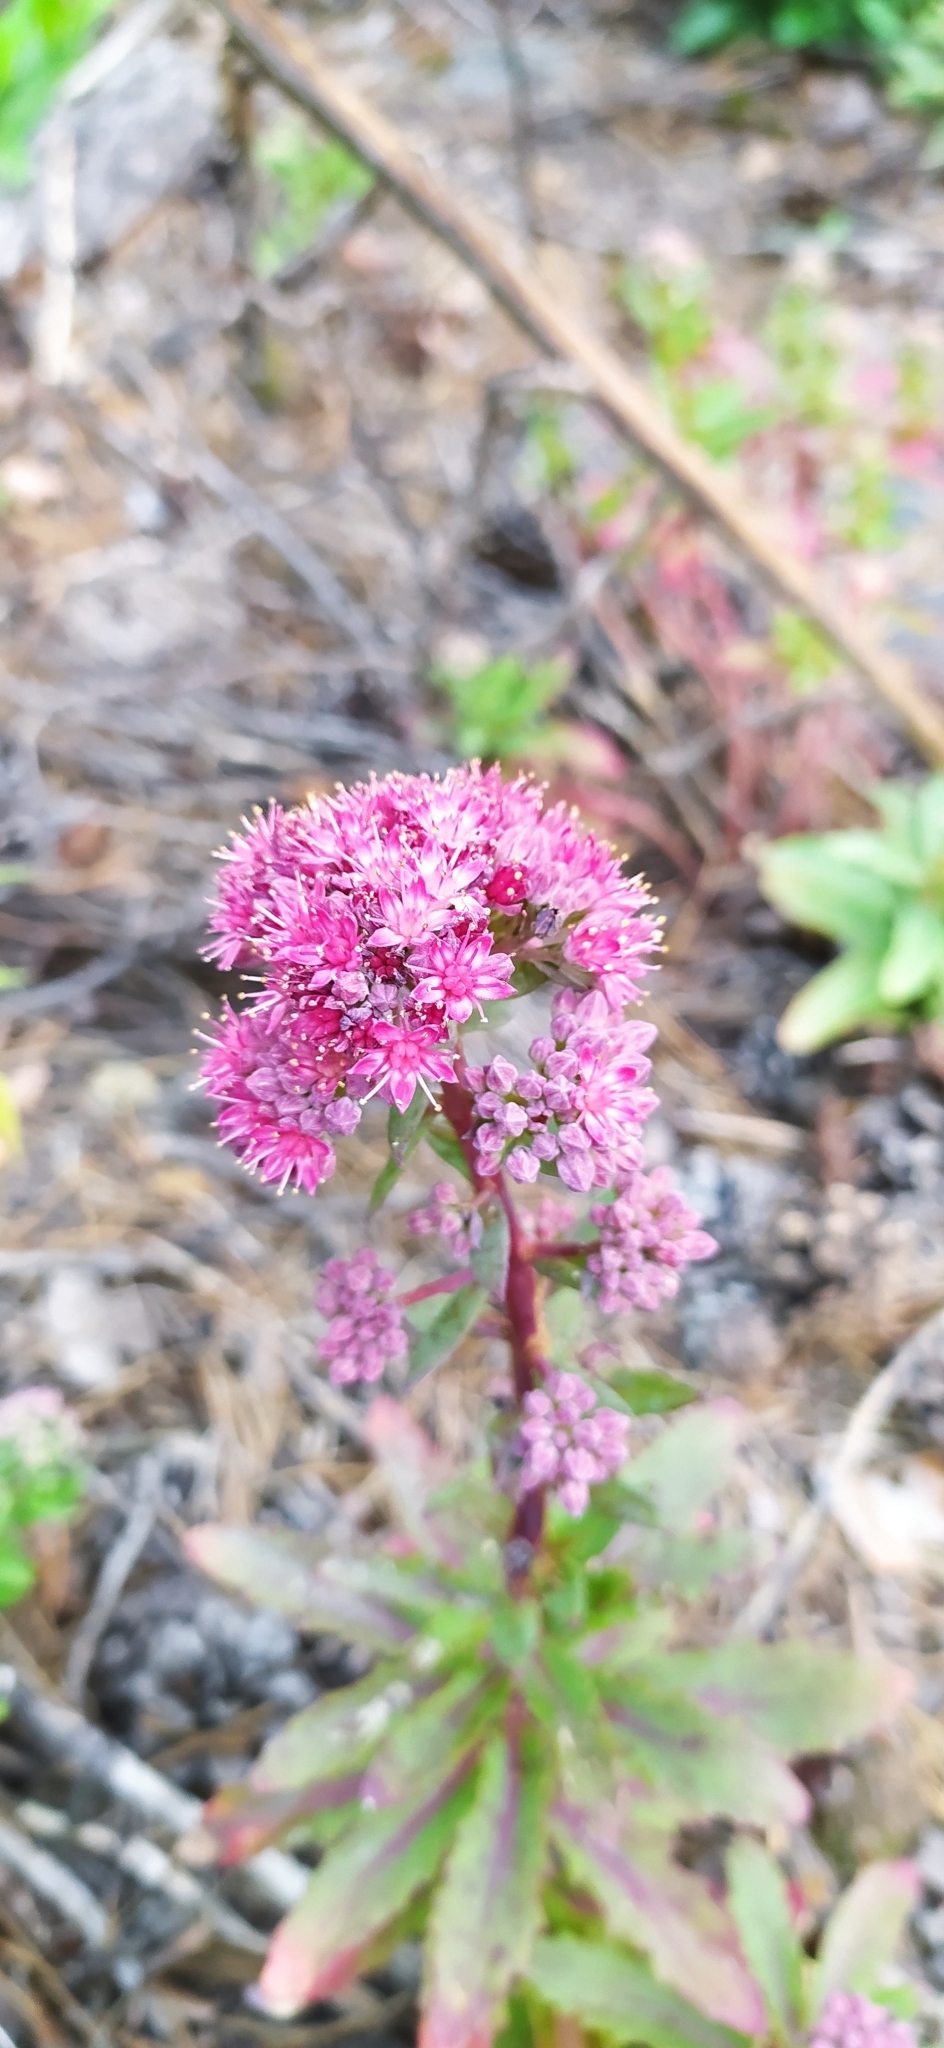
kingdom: Plantae
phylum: Tracheophyta
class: Magnoliopsida
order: Saxifragales
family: Crassulaceae
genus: Hylotelephium
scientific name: Hylotelephium telephium
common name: Live-forever
